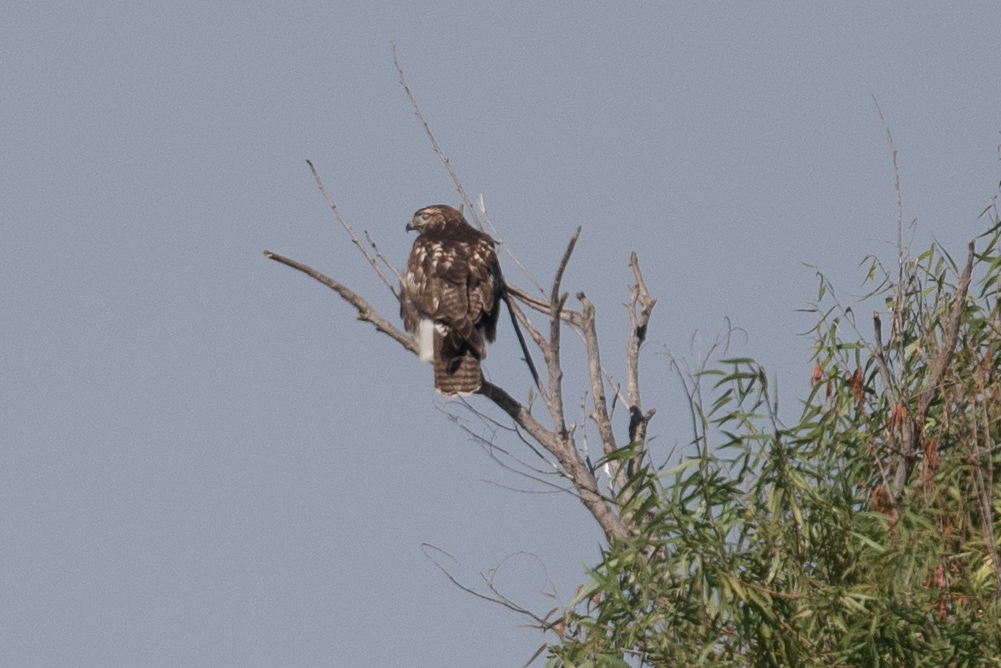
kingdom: Animalia
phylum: Chordata
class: Aves
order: Accipitriformes
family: Accipitridae
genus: Buteo
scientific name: Buteo jamaicensis
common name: Red-tailed hawk
